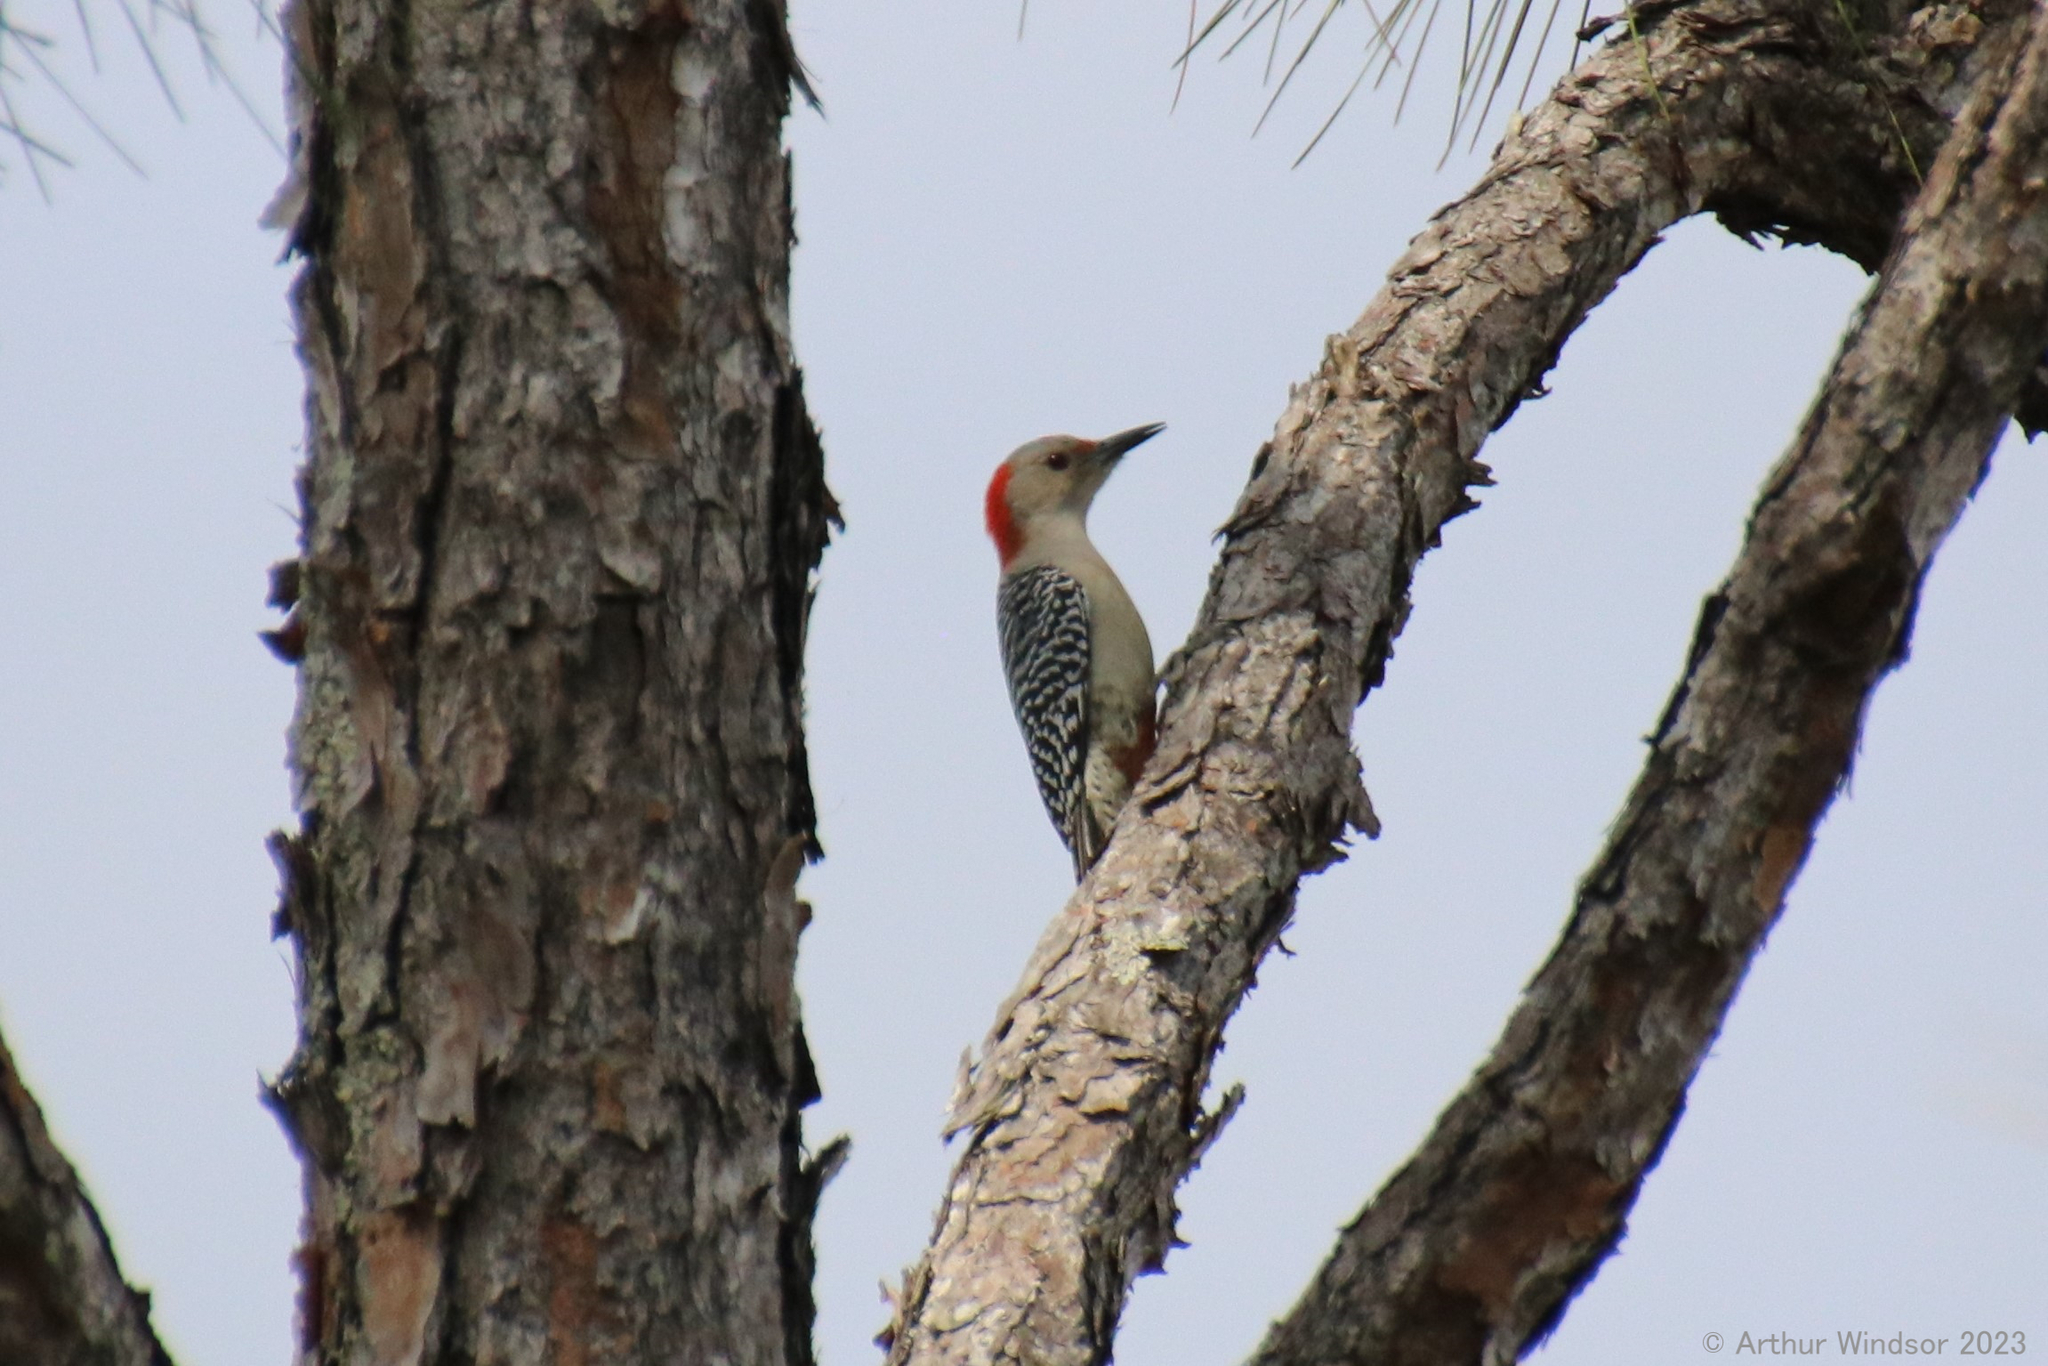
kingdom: Animalia
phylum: Chordata
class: Aves
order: Piciformes
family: Picidae
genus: Melanerpes
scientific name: Melanerpes carolinus
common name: Red-bellied woodpecker
